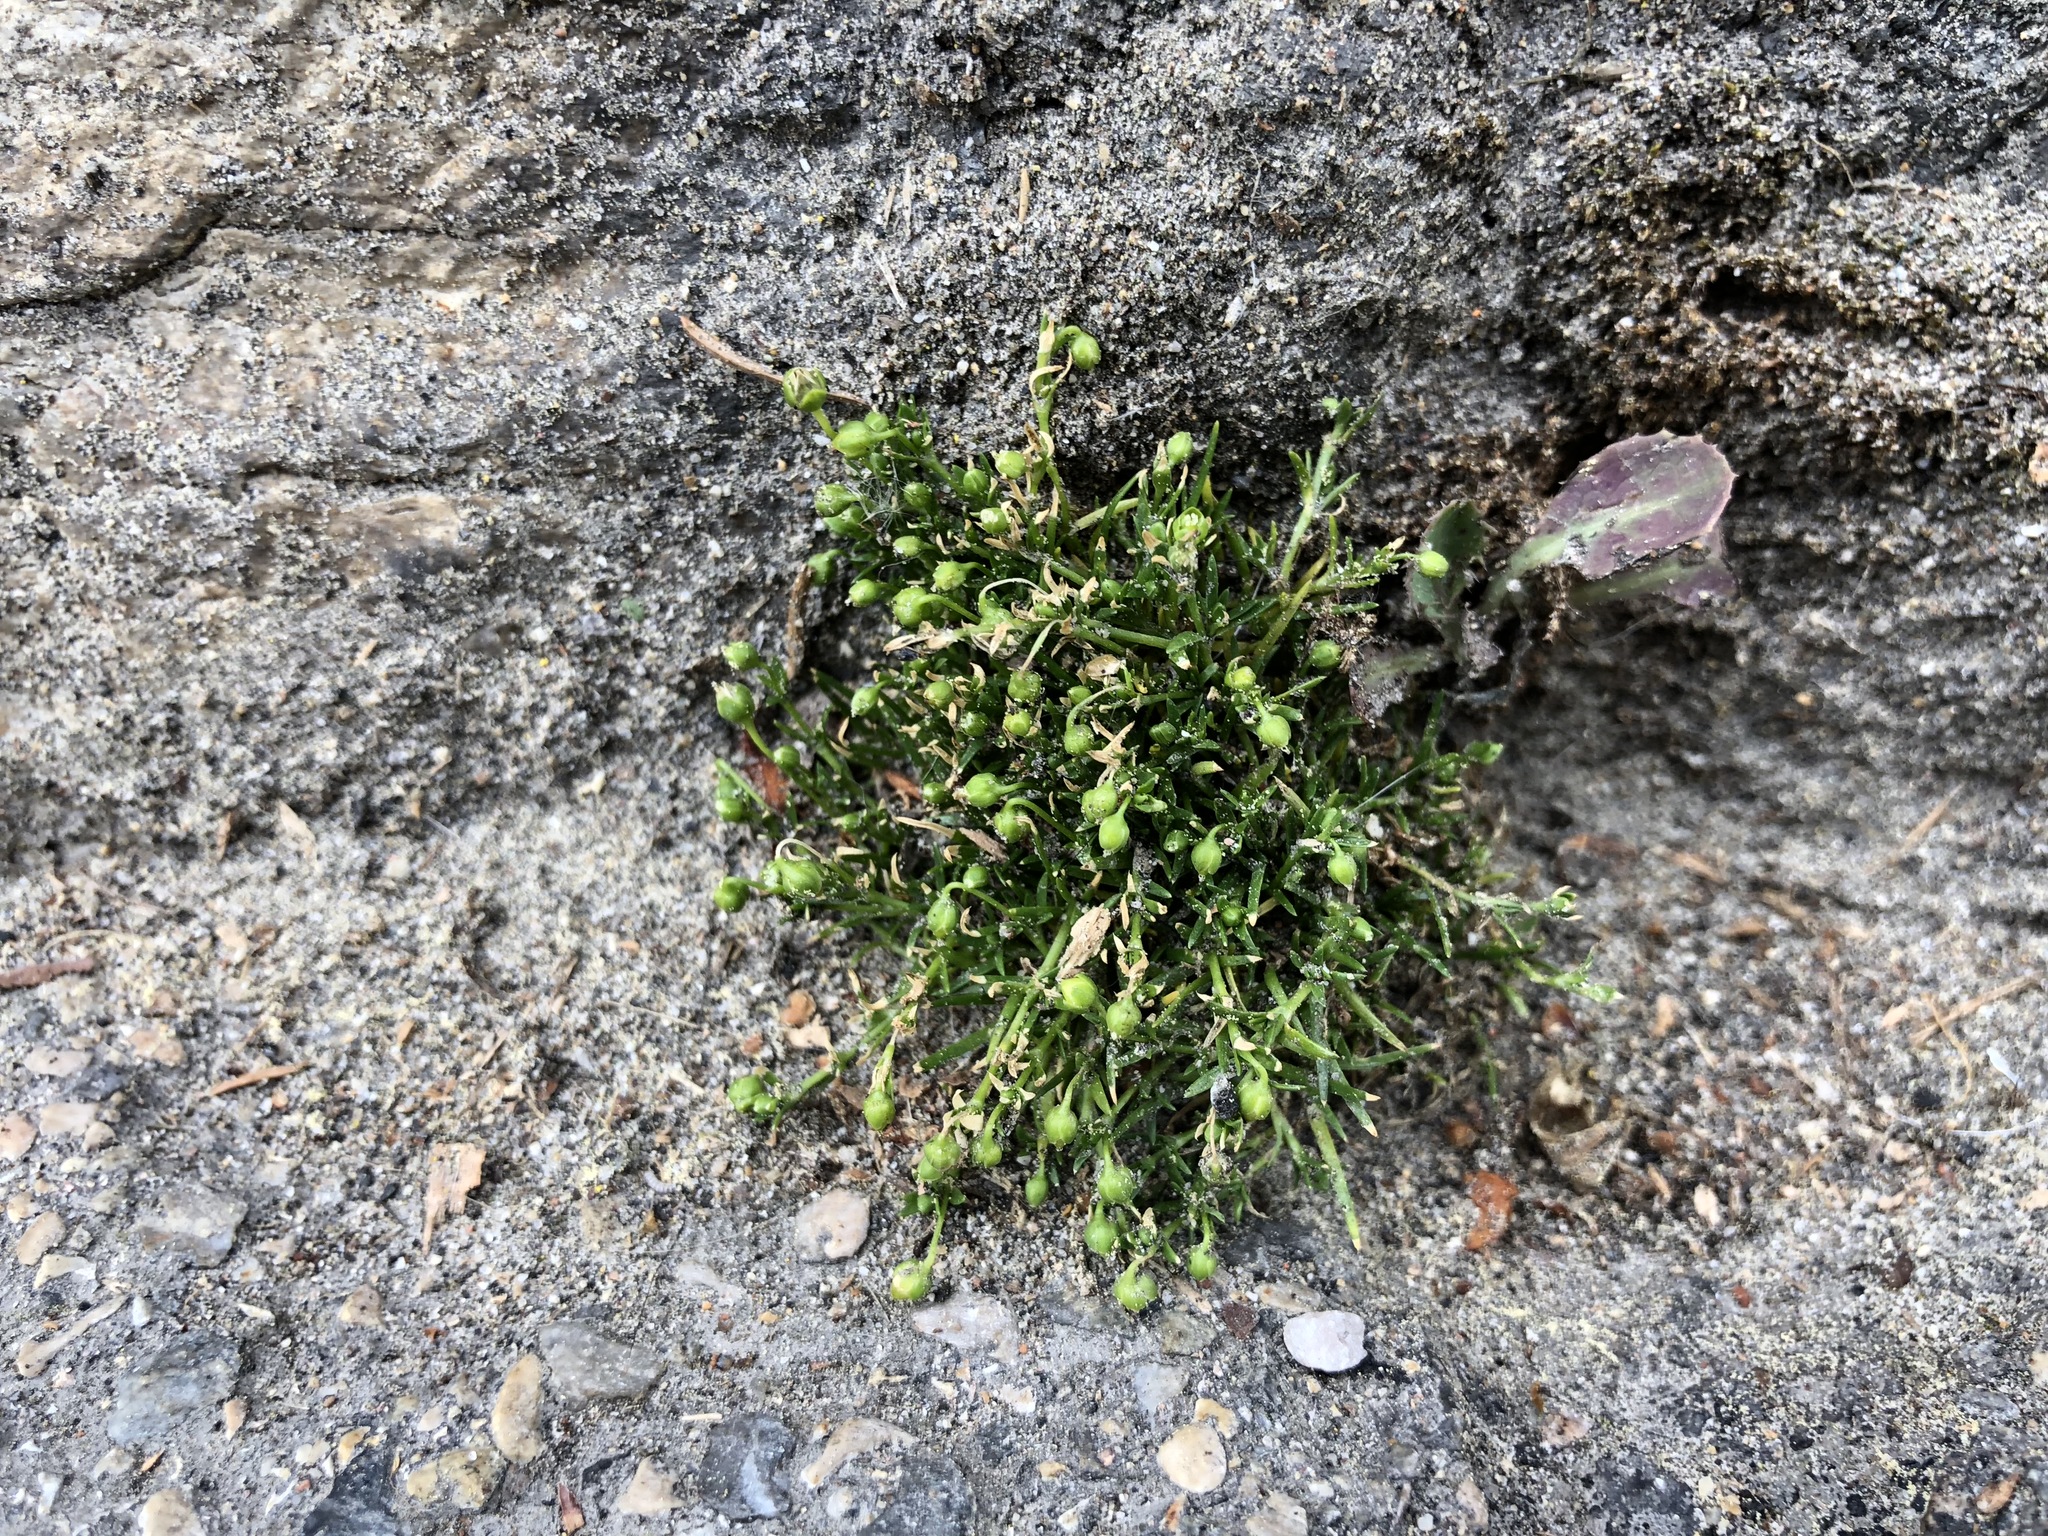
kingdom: Plantae
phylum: Tracheophyta
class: Magnoliopsida
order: Caryophyllales
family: Caryophyllaceae
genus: Sagina
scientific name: Sagina procumbens
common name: Procumbent pearlwort
